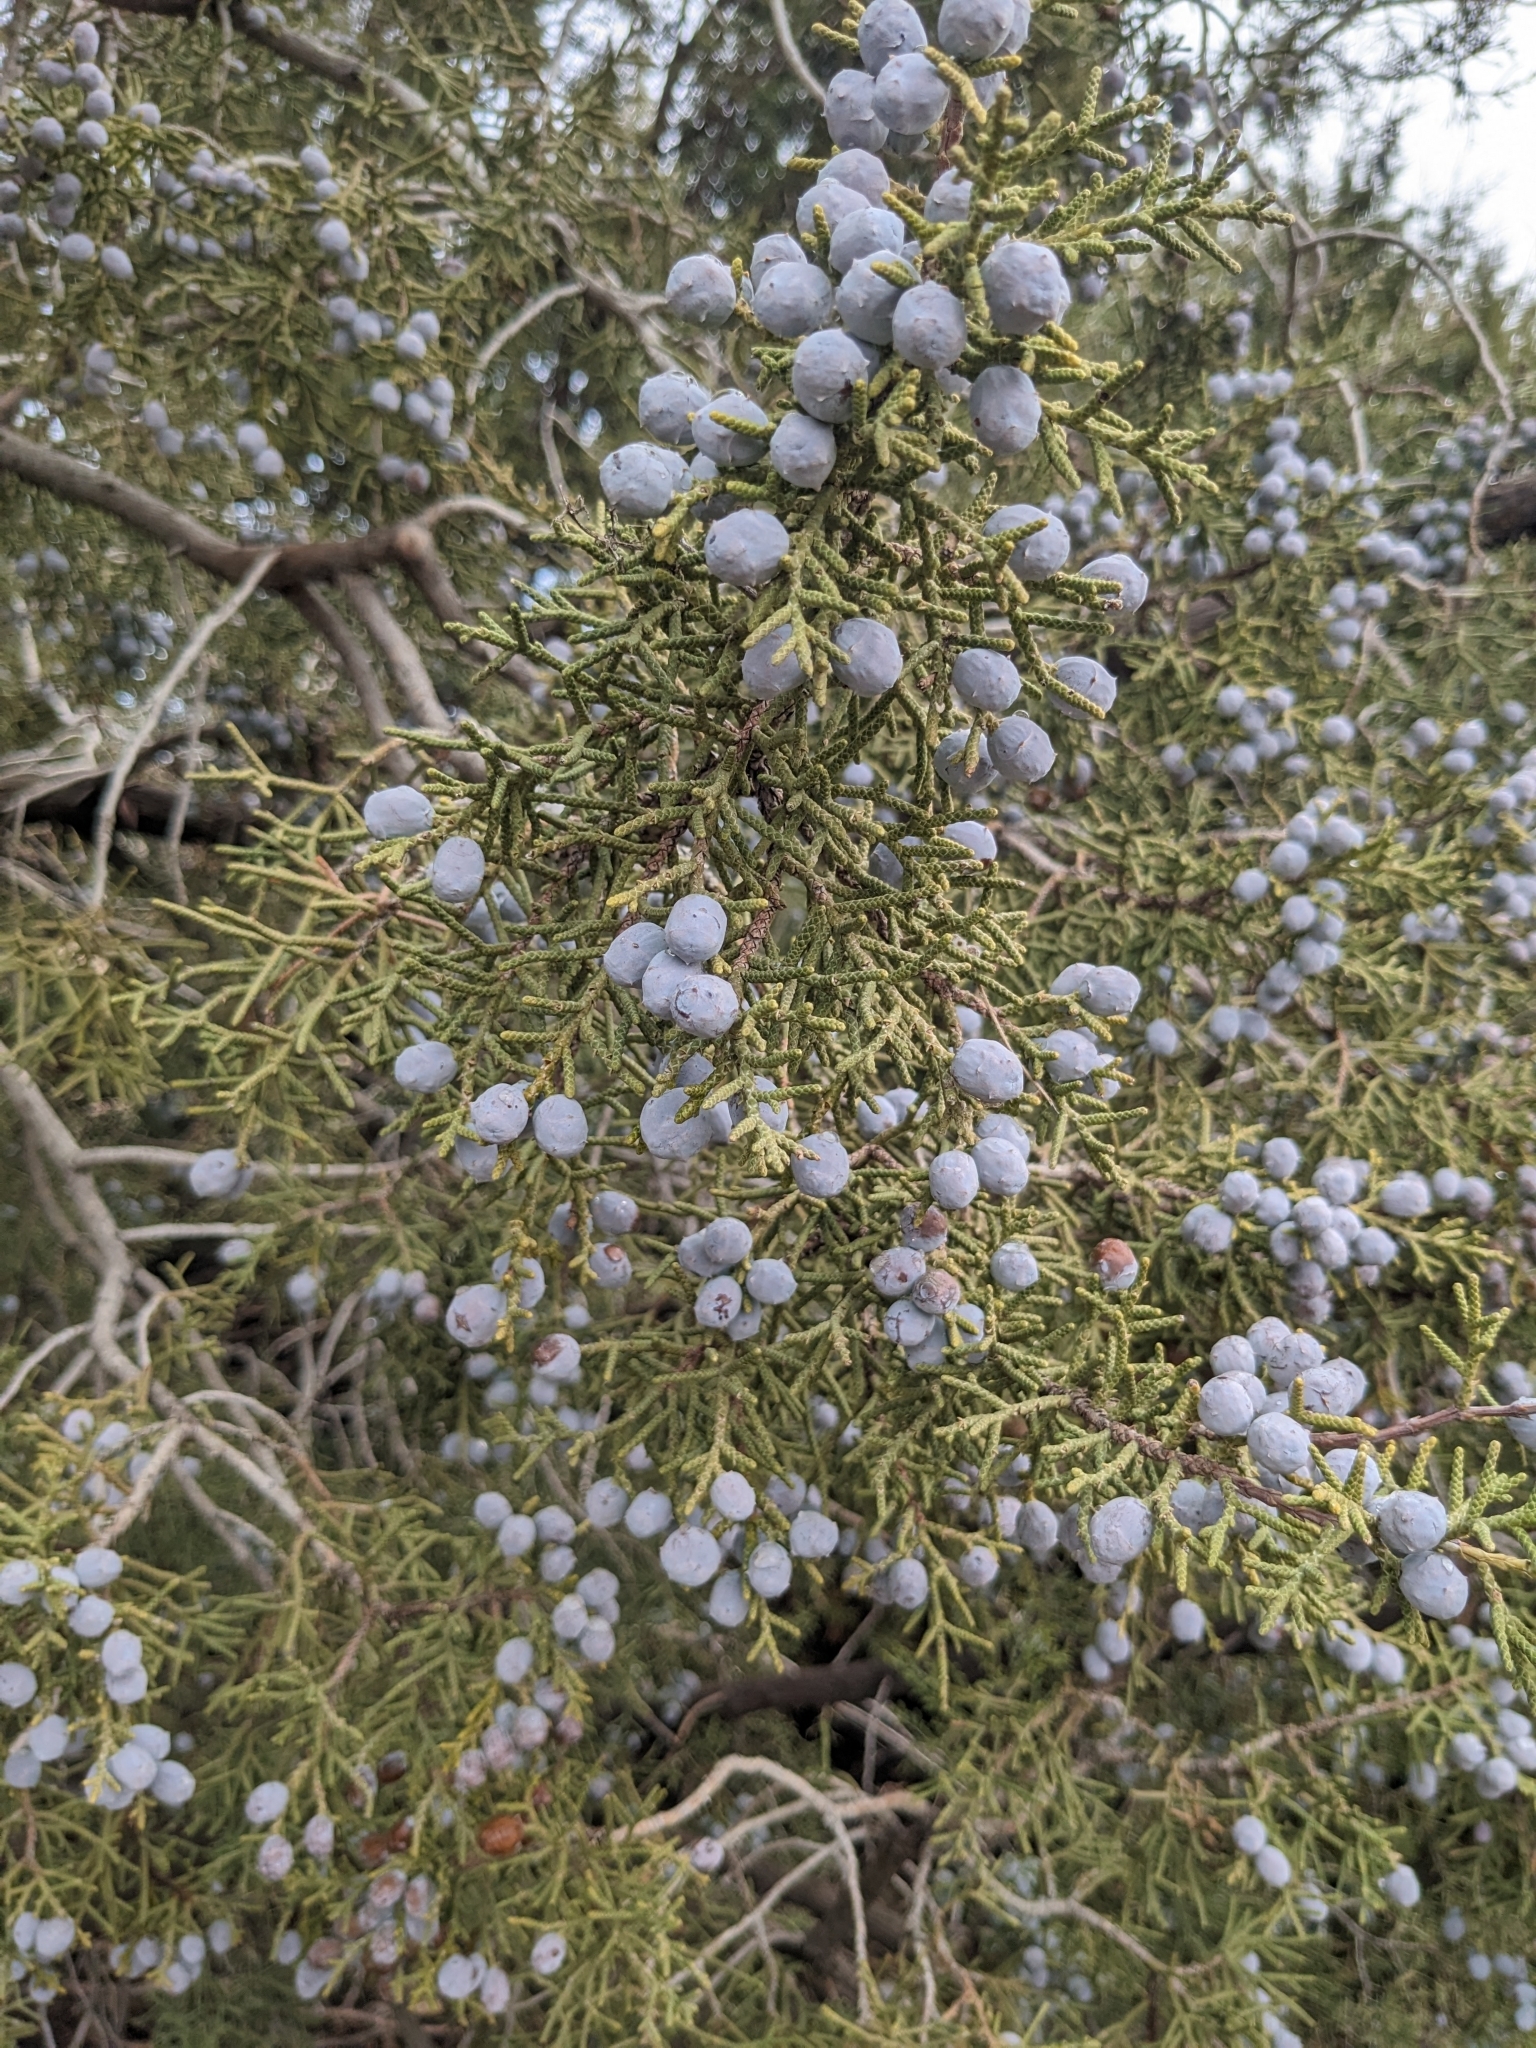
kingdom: Plantae
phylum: Tracheophyta
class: Pinopsida
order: Pinales
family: Cupressaceae
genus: Juniperus
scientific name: Juniperus californica
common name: California juniper
